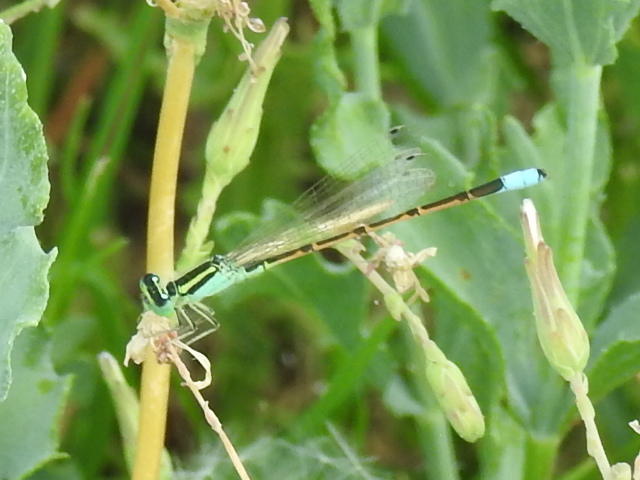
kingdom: Animalia
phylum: Arthropoda
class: Insecta
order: Odonata
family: Coenagrionidae
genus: Ischnura
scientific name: Ischnura barberi
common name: Desert forktail
